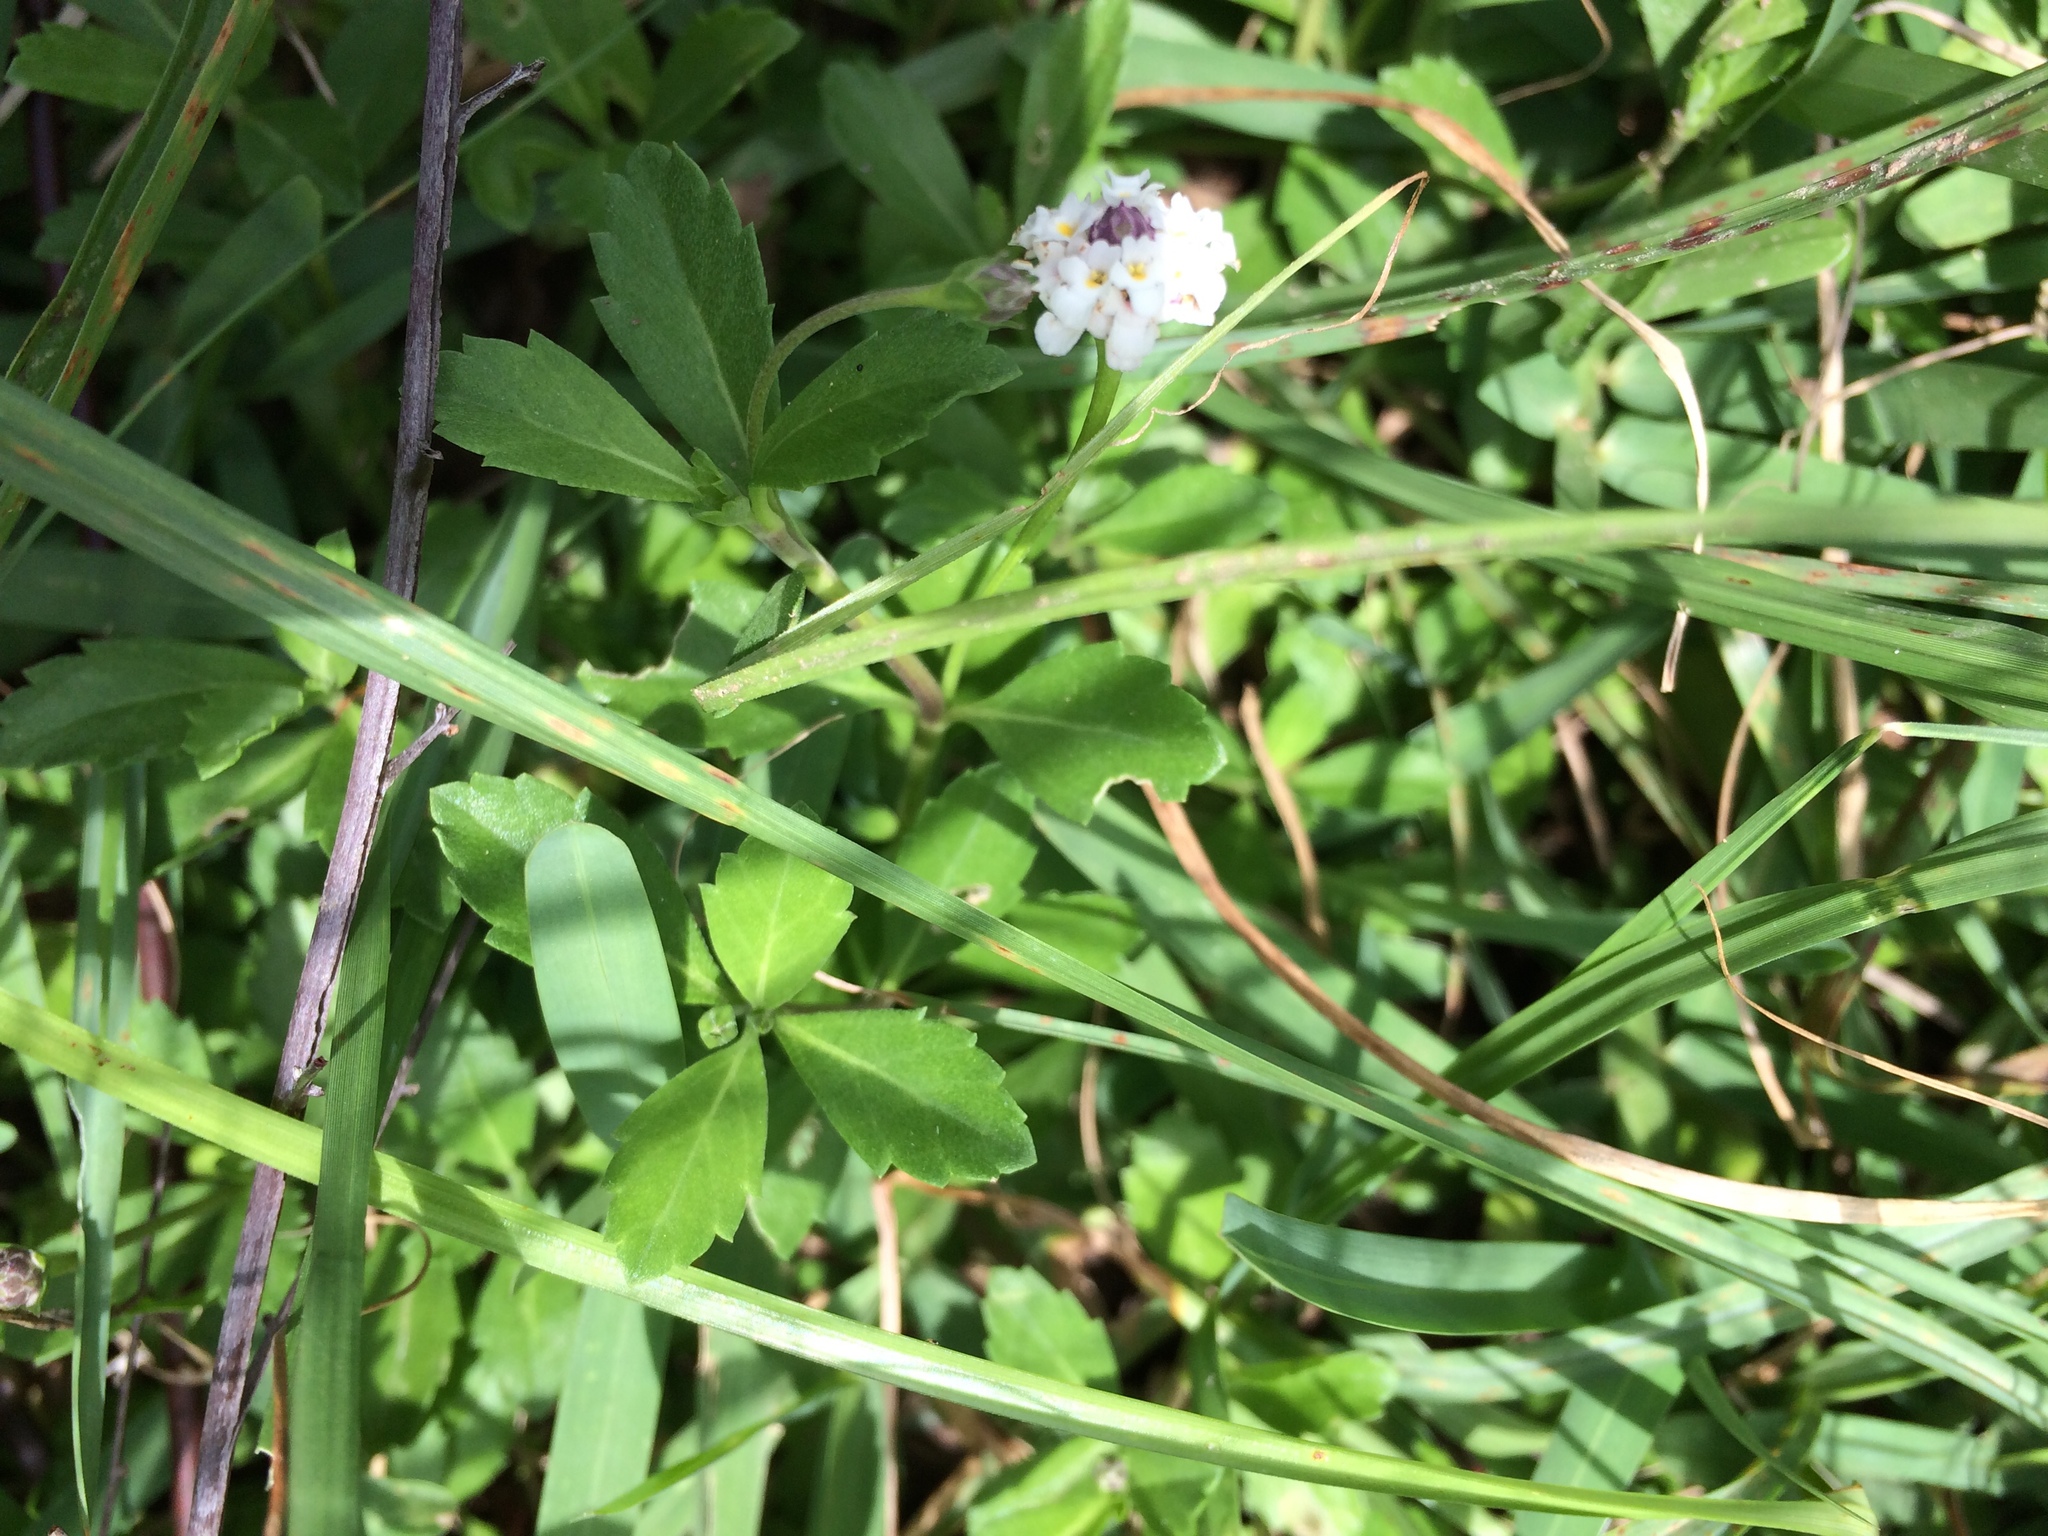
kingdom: Plantae
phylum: Tracheophyta
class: Magnoliopsida
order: Lamiales
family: Verbenaceae
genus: Phyla
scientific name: Phyla nodiflora
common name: Frogfruit
